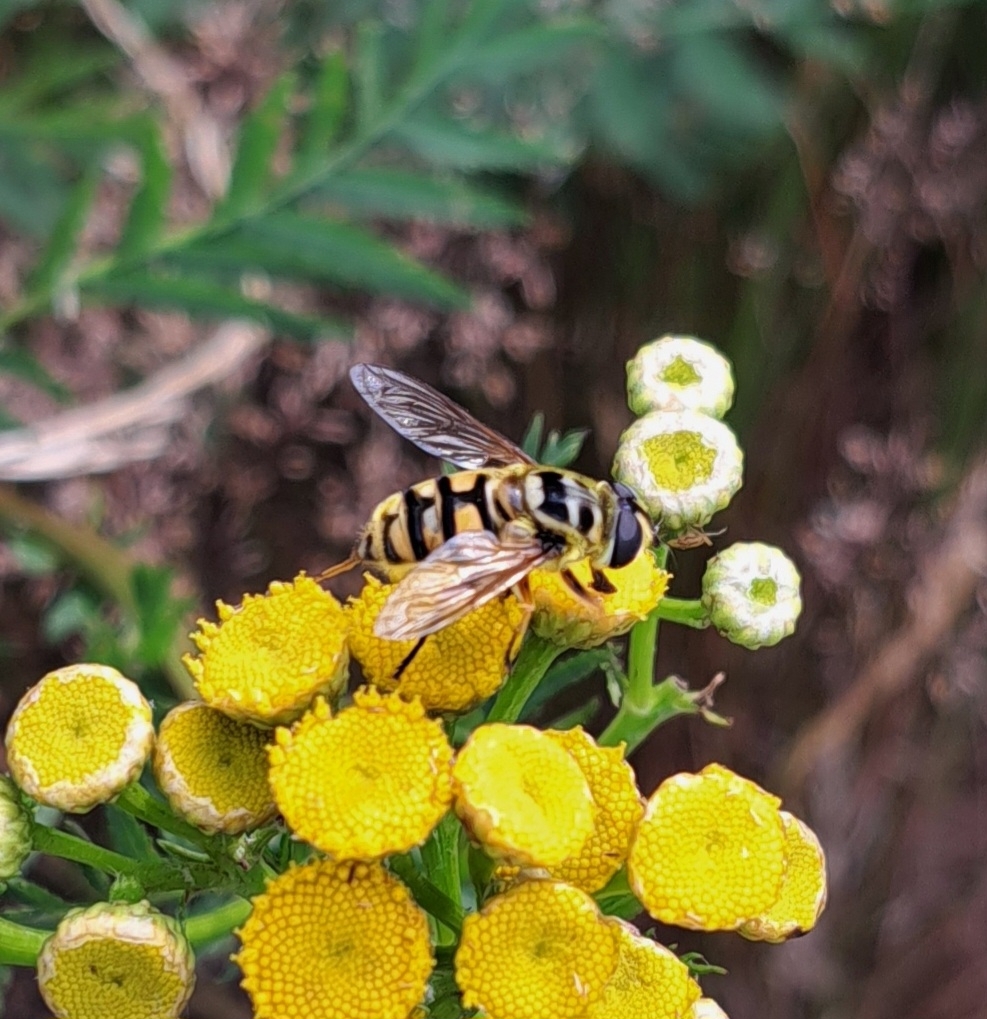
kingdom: Animalia
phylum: Arthropoda
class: Insecta
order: Diptera
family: Syrphidae
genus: Myathropa
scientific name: Myathropa florea
